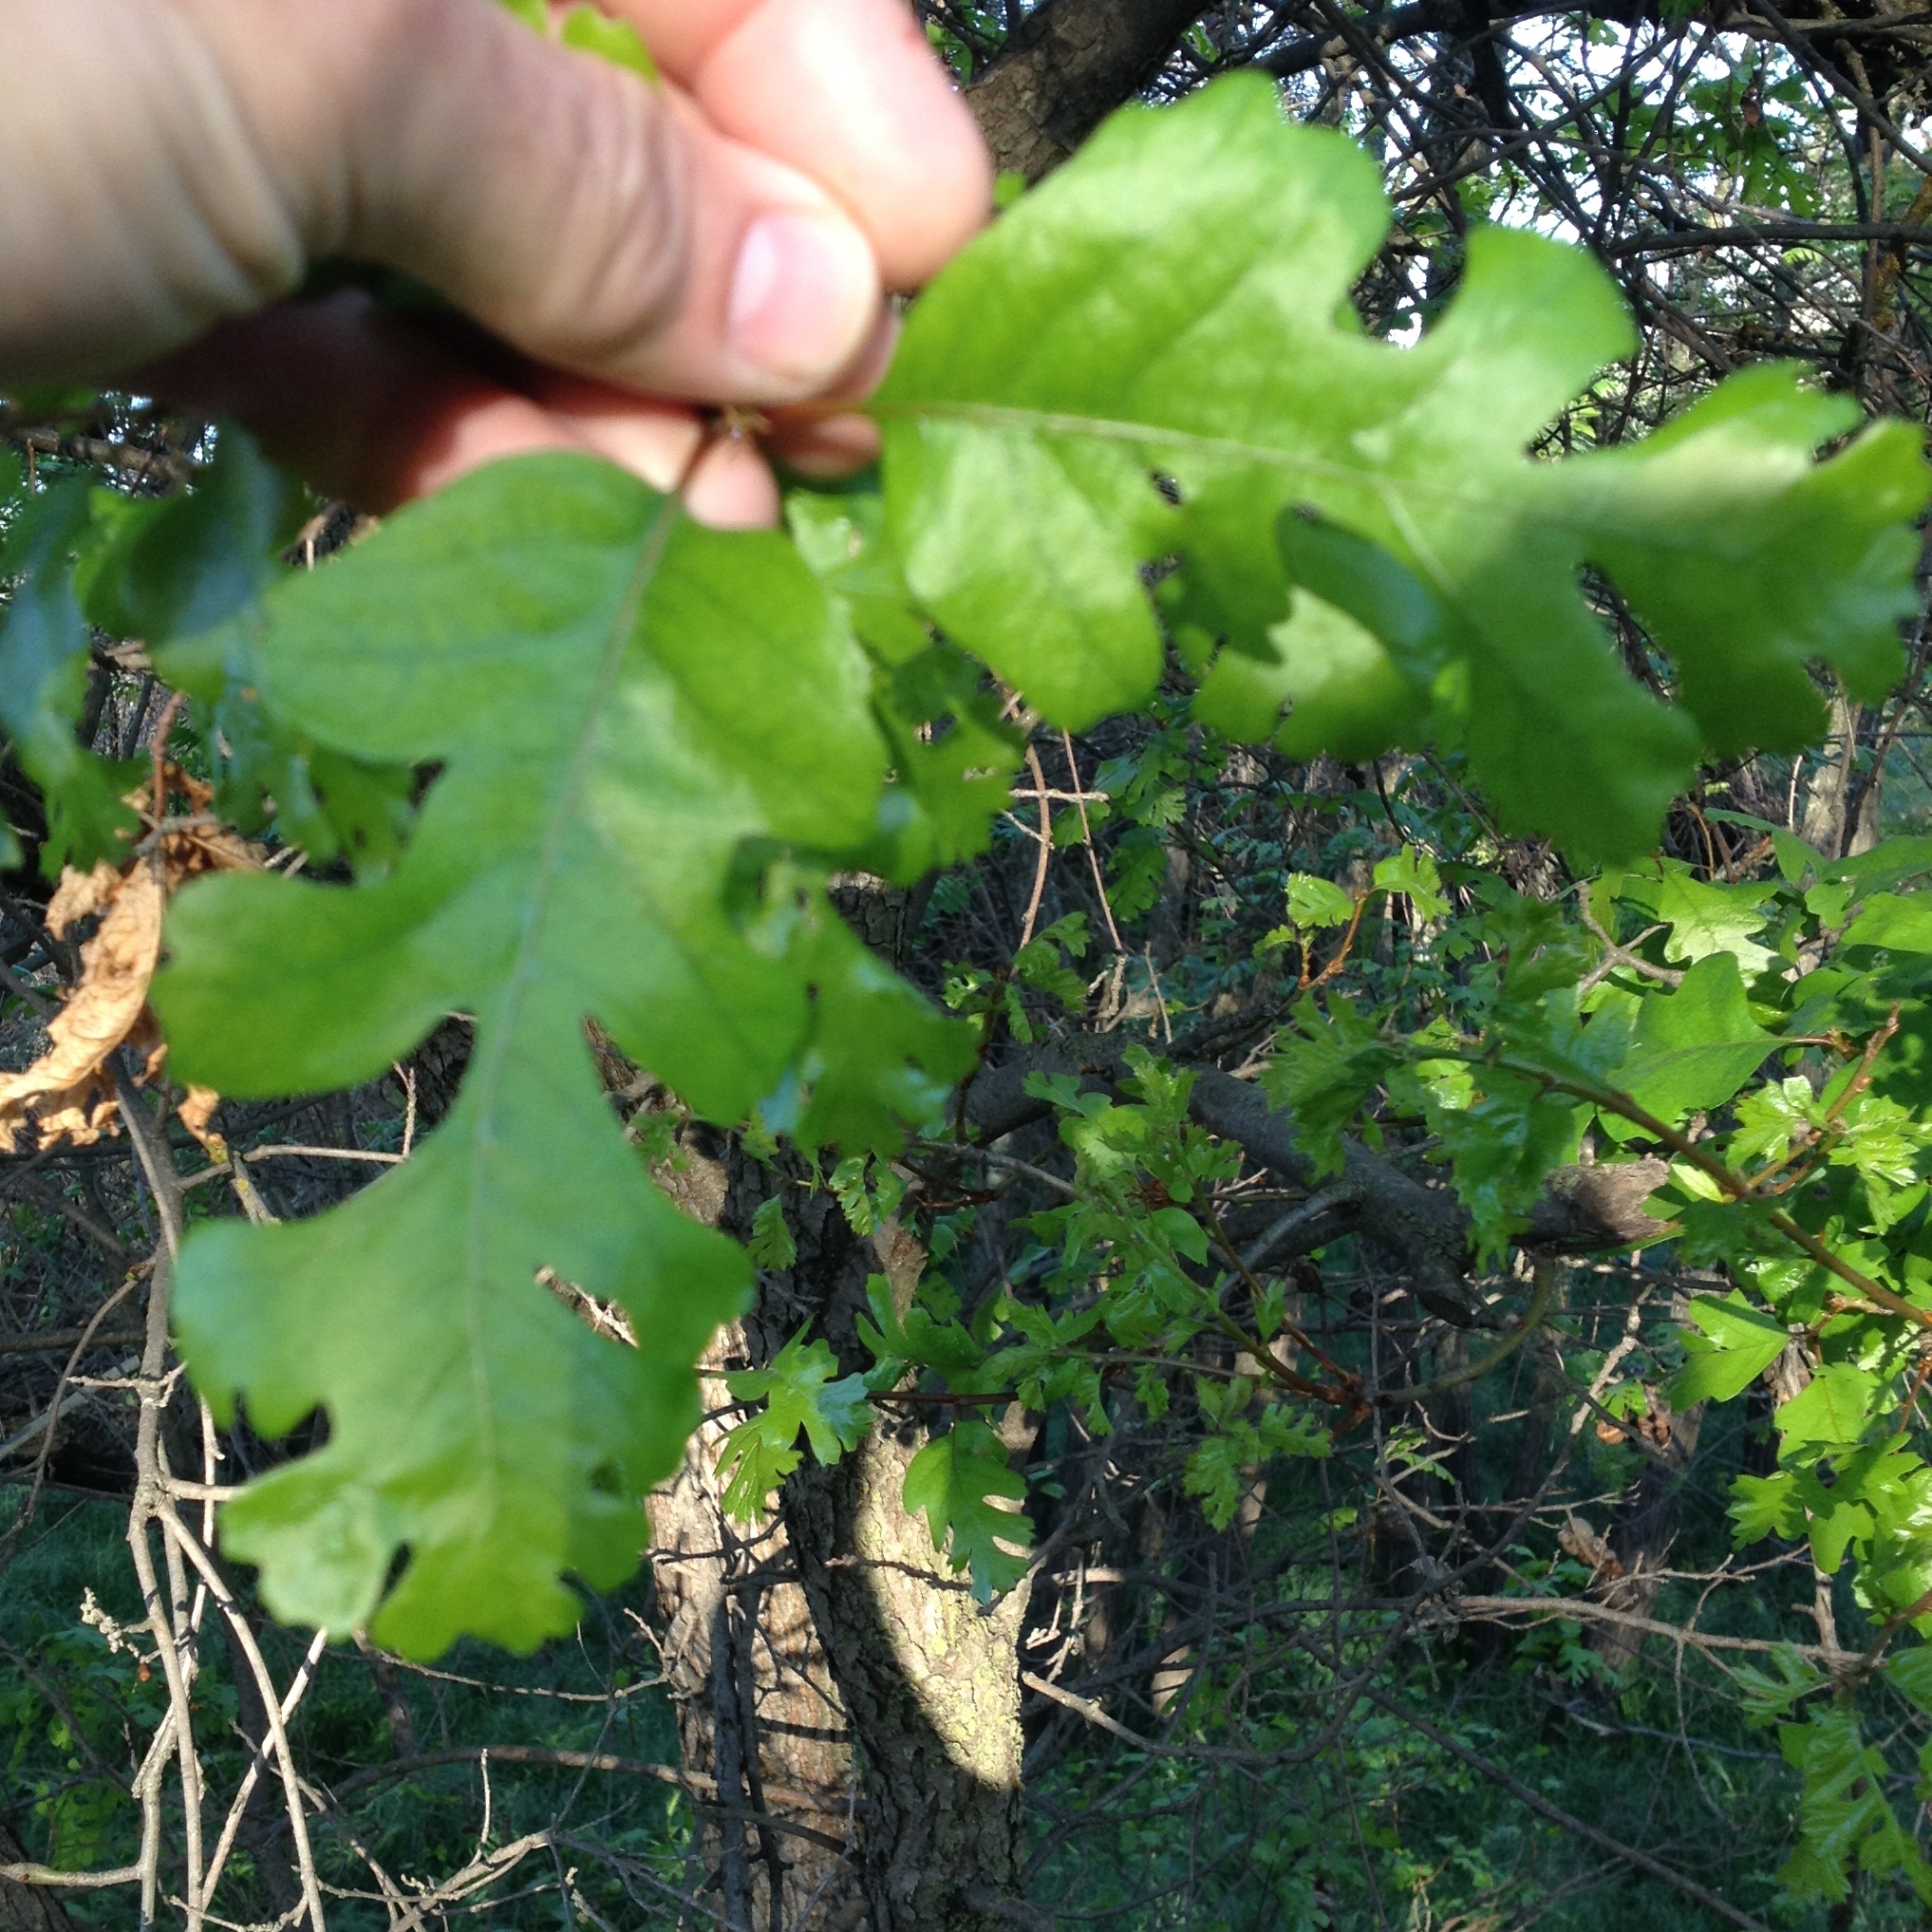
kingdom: Plantae
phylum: Tracheophyta
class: Magnoliopsida
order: Fagales
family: Fagaceae
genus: Quercus
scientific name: Quercus lobata
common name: Valley oak
